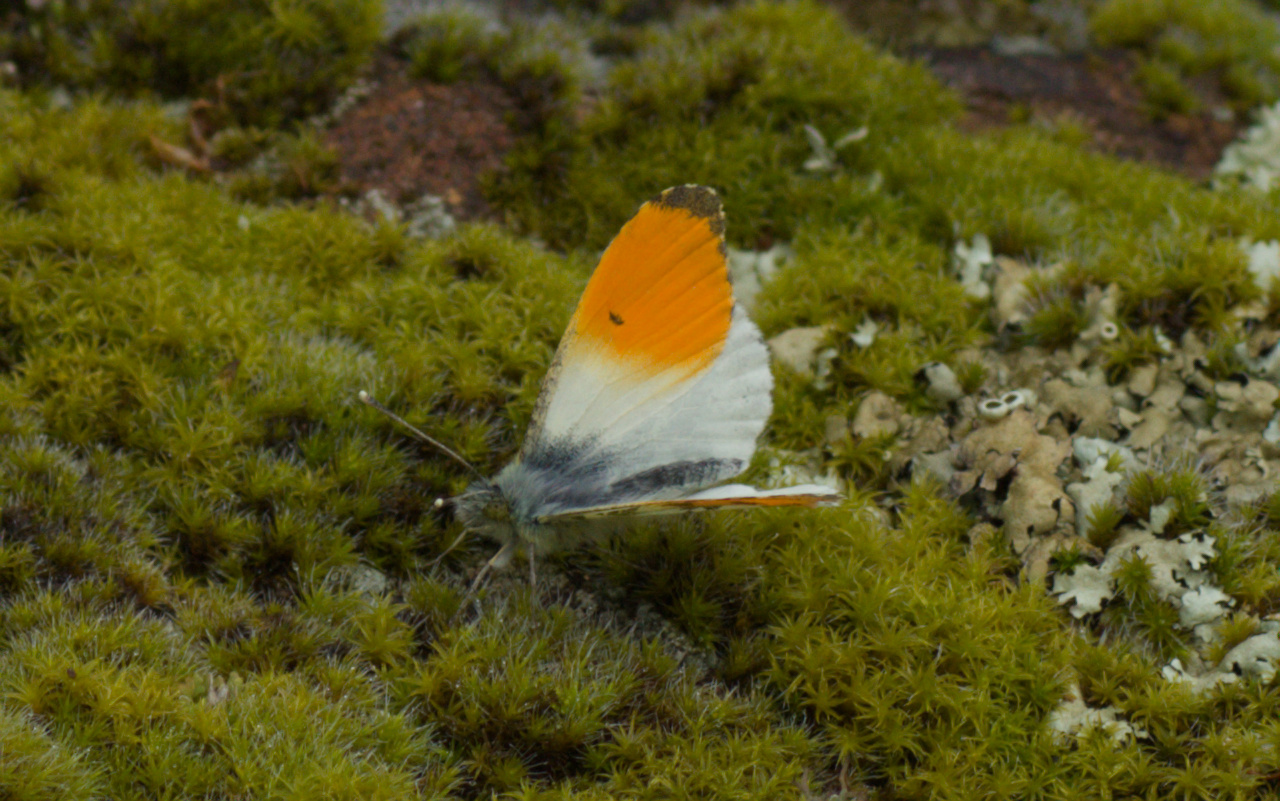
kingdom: Animalia
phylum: Arthropoda
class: Insecta
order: Lepidoptera
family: Pieridae
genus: Anthocharis
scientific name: Anthocharis cardamines
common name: Orange-tip
